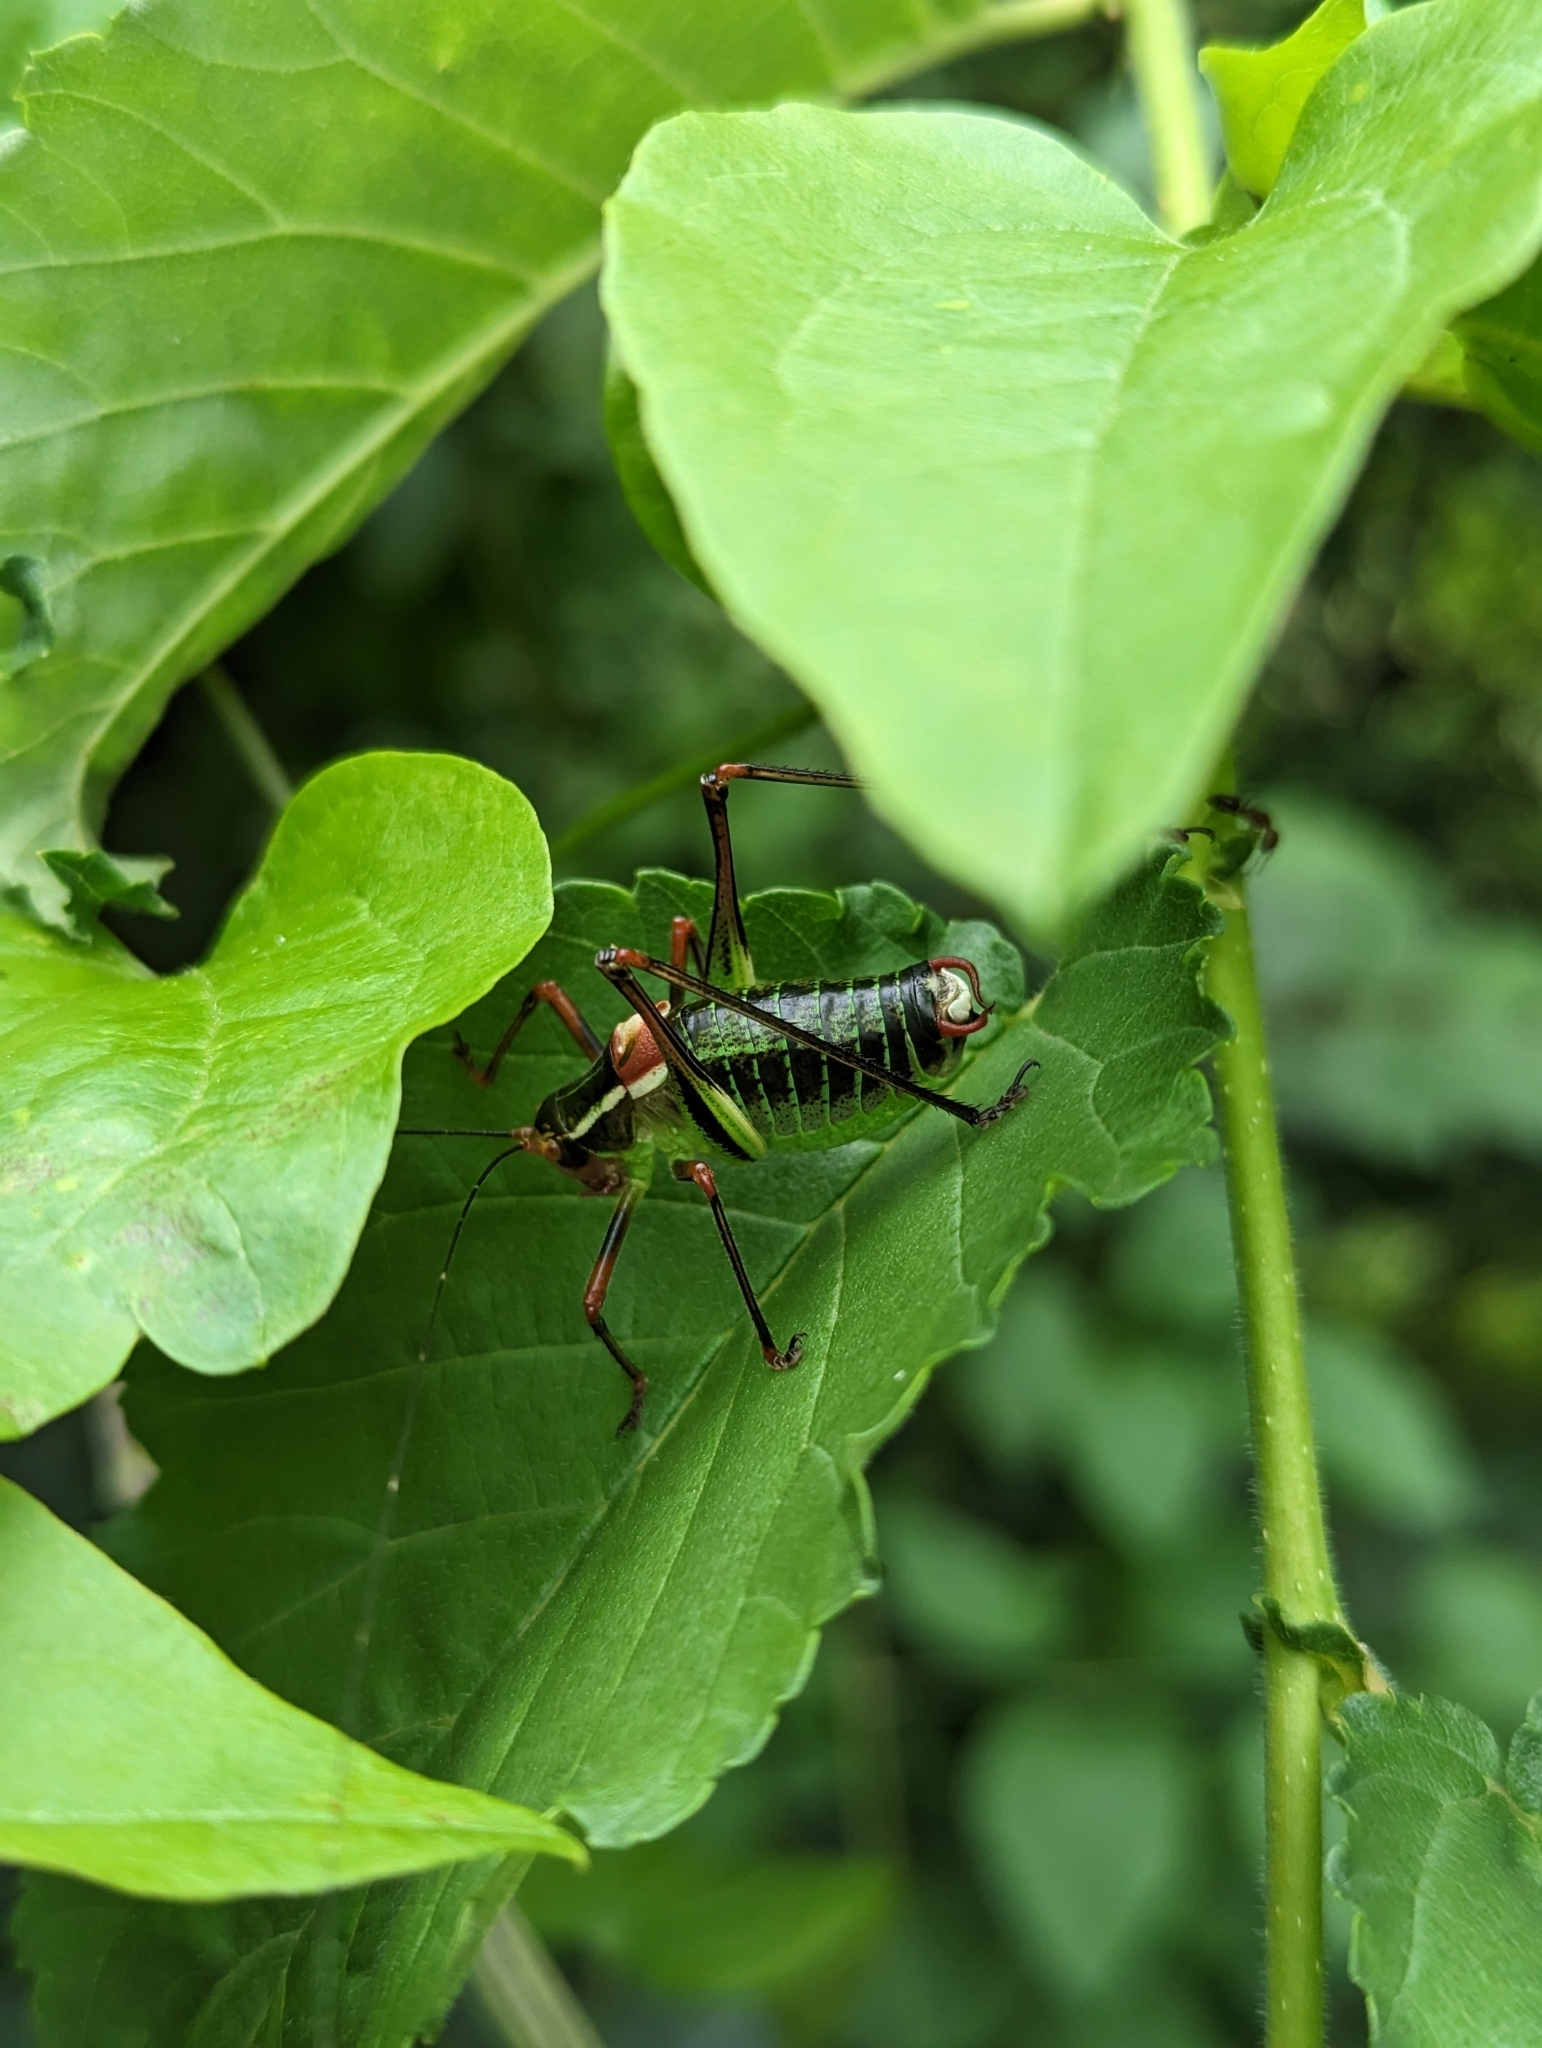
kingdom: Animalia
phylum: Arthropoda
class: Insecta
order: Orthoptera
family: Tettigoniidae
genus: Barbitistes
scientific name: Barbitistes ocskayi
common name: Black saw bush-cricket
